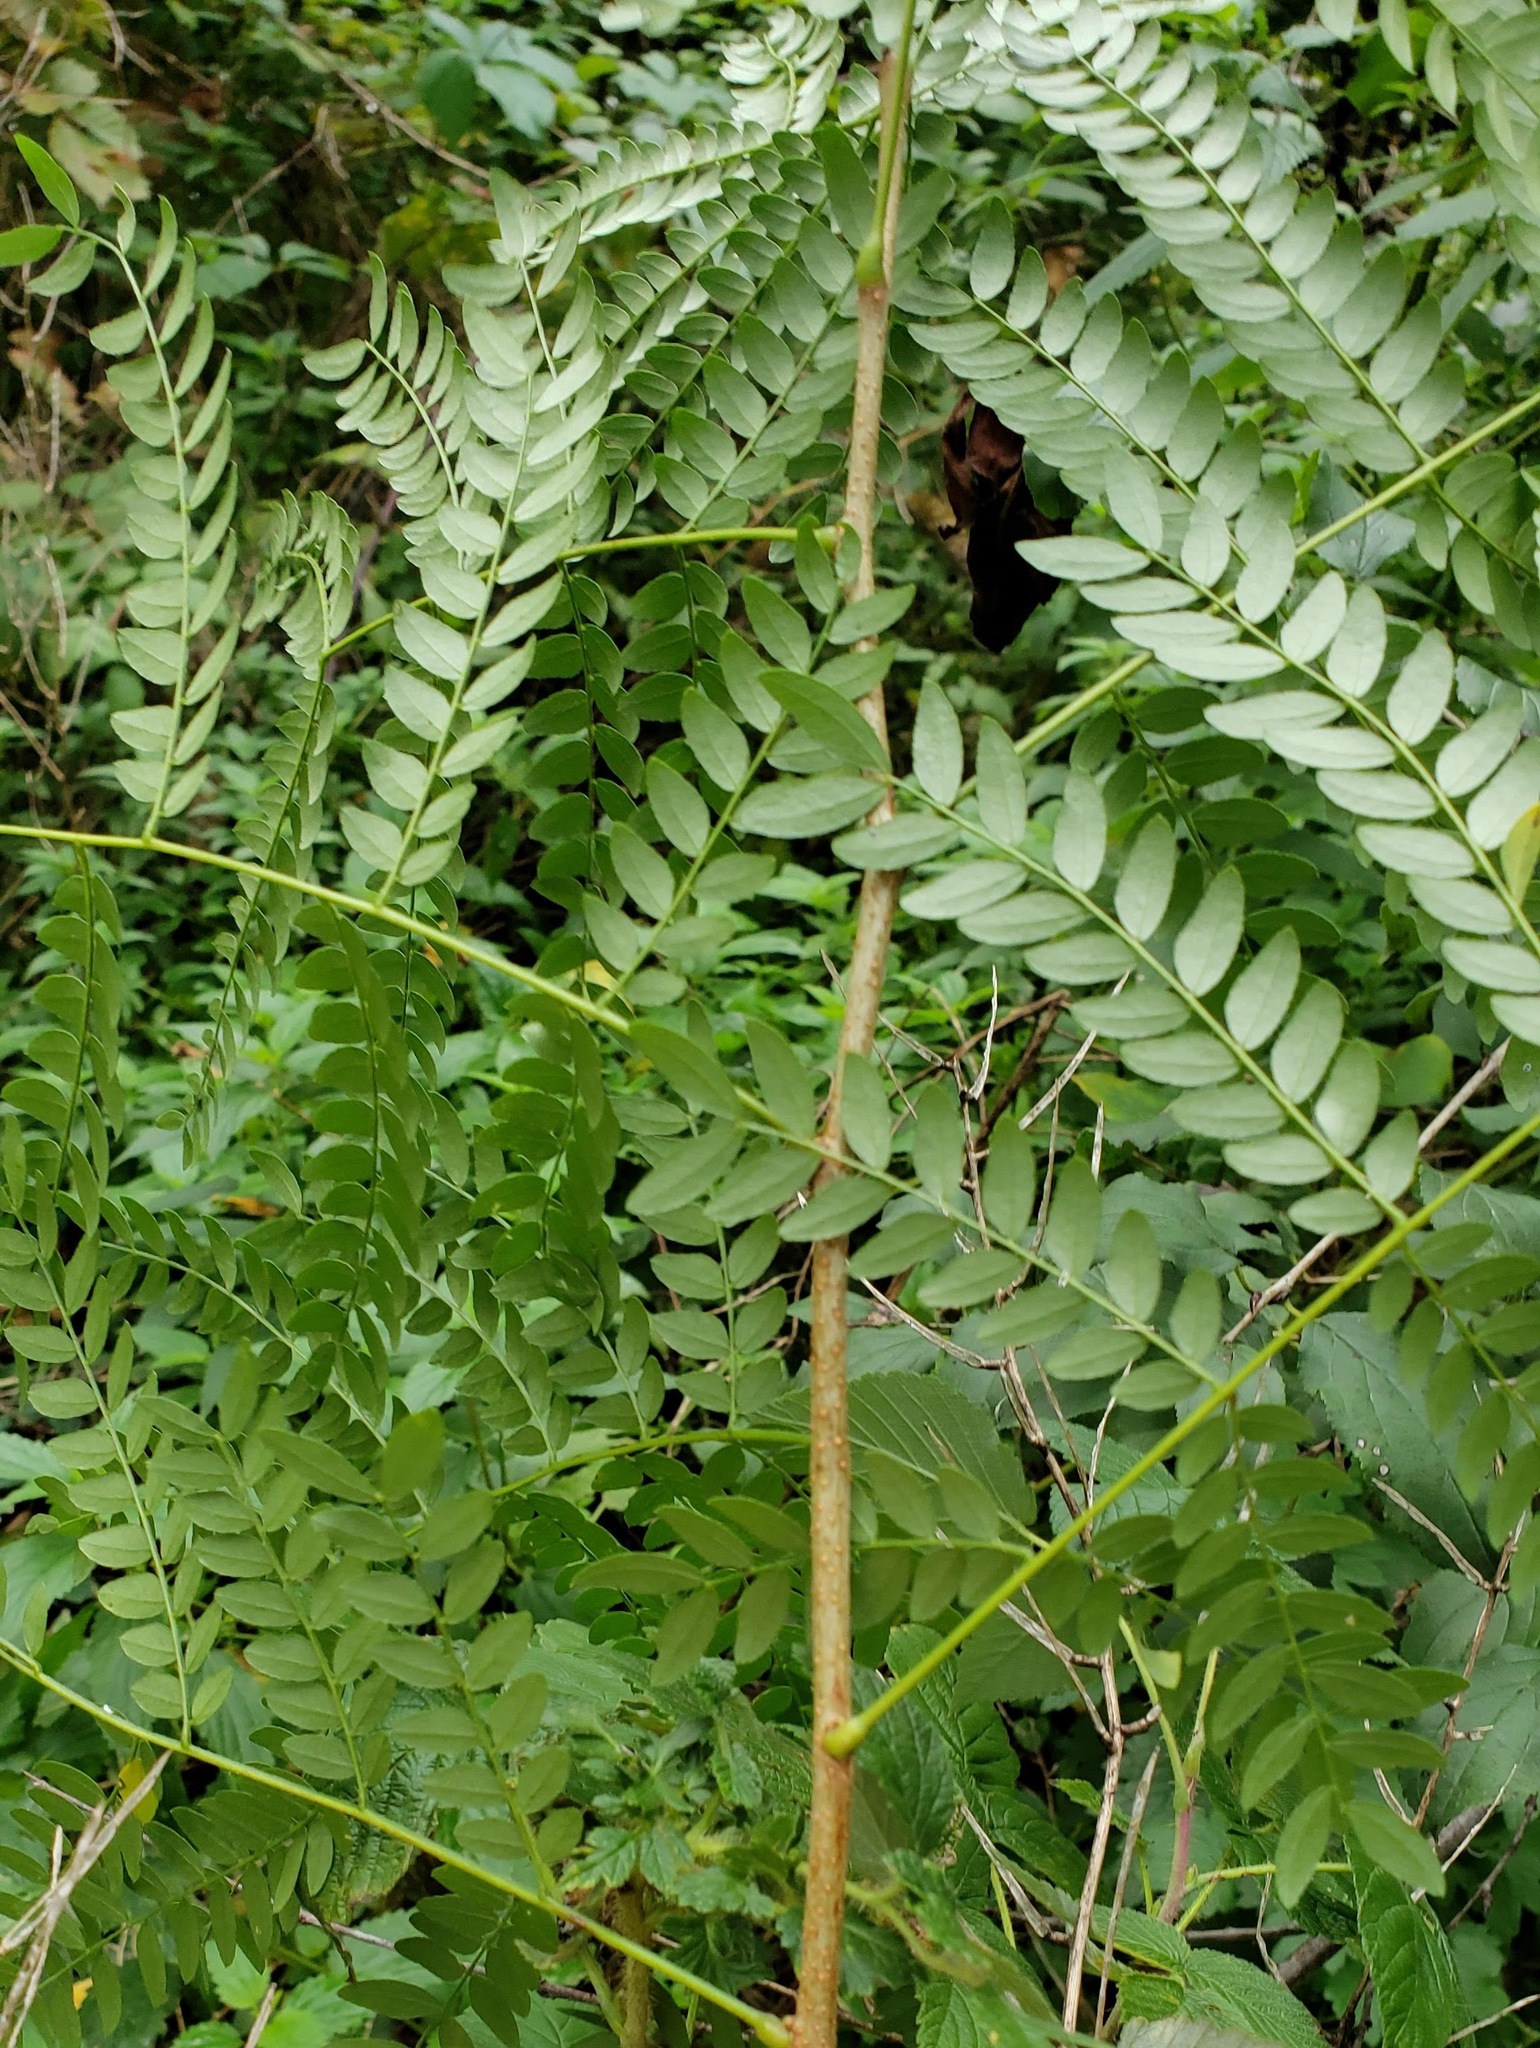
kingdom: Plantae
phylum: Tracheophyta
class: Magnoliopsida
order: Fabales
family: Fabaceae
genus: Gleditsia
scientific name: Gleditsia triacanthos
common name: Common honeylocust
